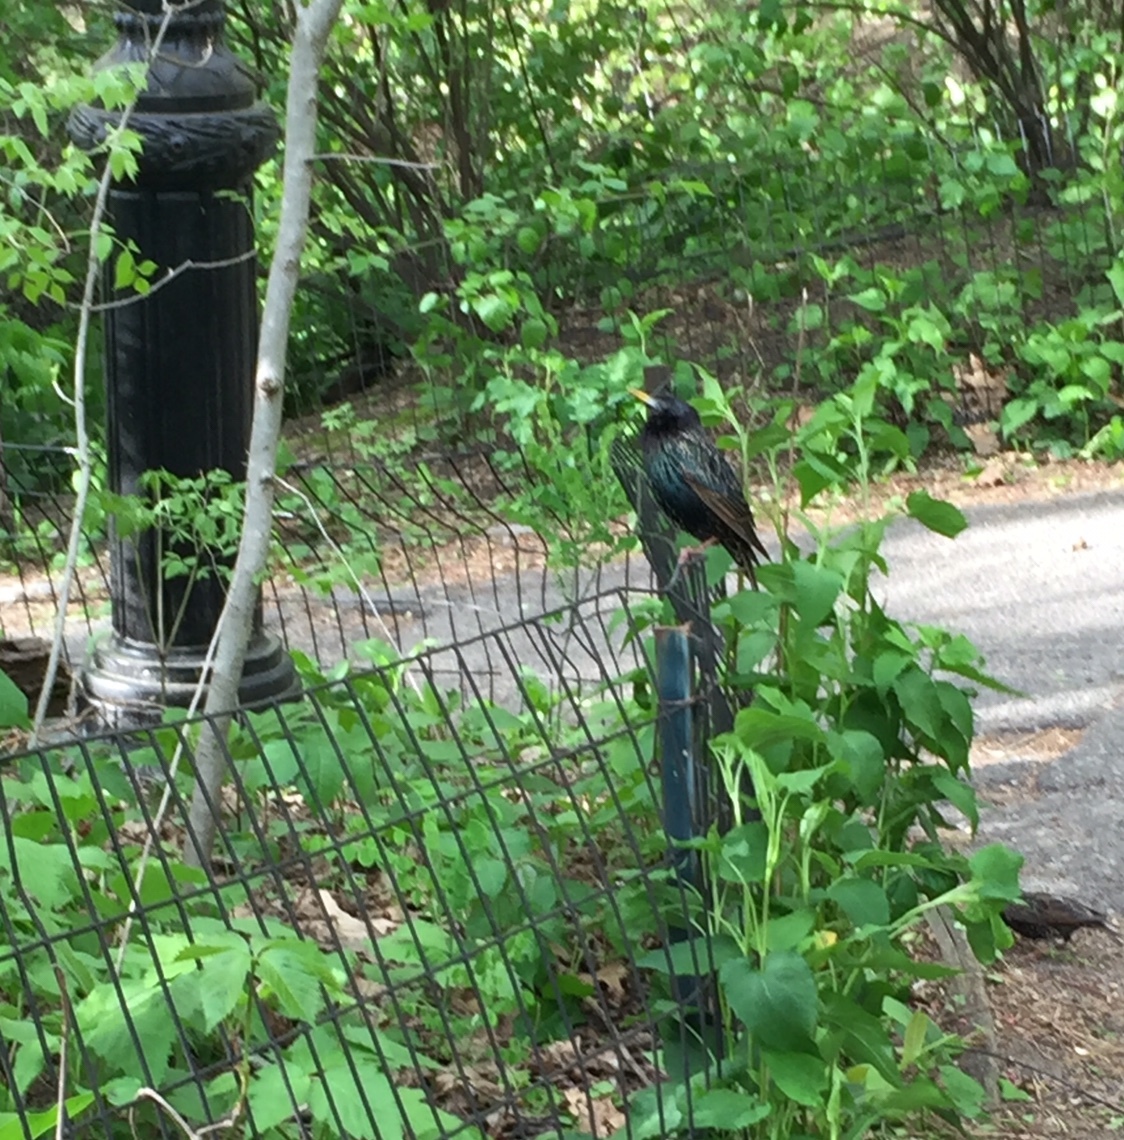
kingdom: Animalia
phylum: Chordata
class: Aves
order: Passeriformes
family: Sturnidae
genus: Sturnus
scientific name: Sturnus vulgaris
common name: Common starling
